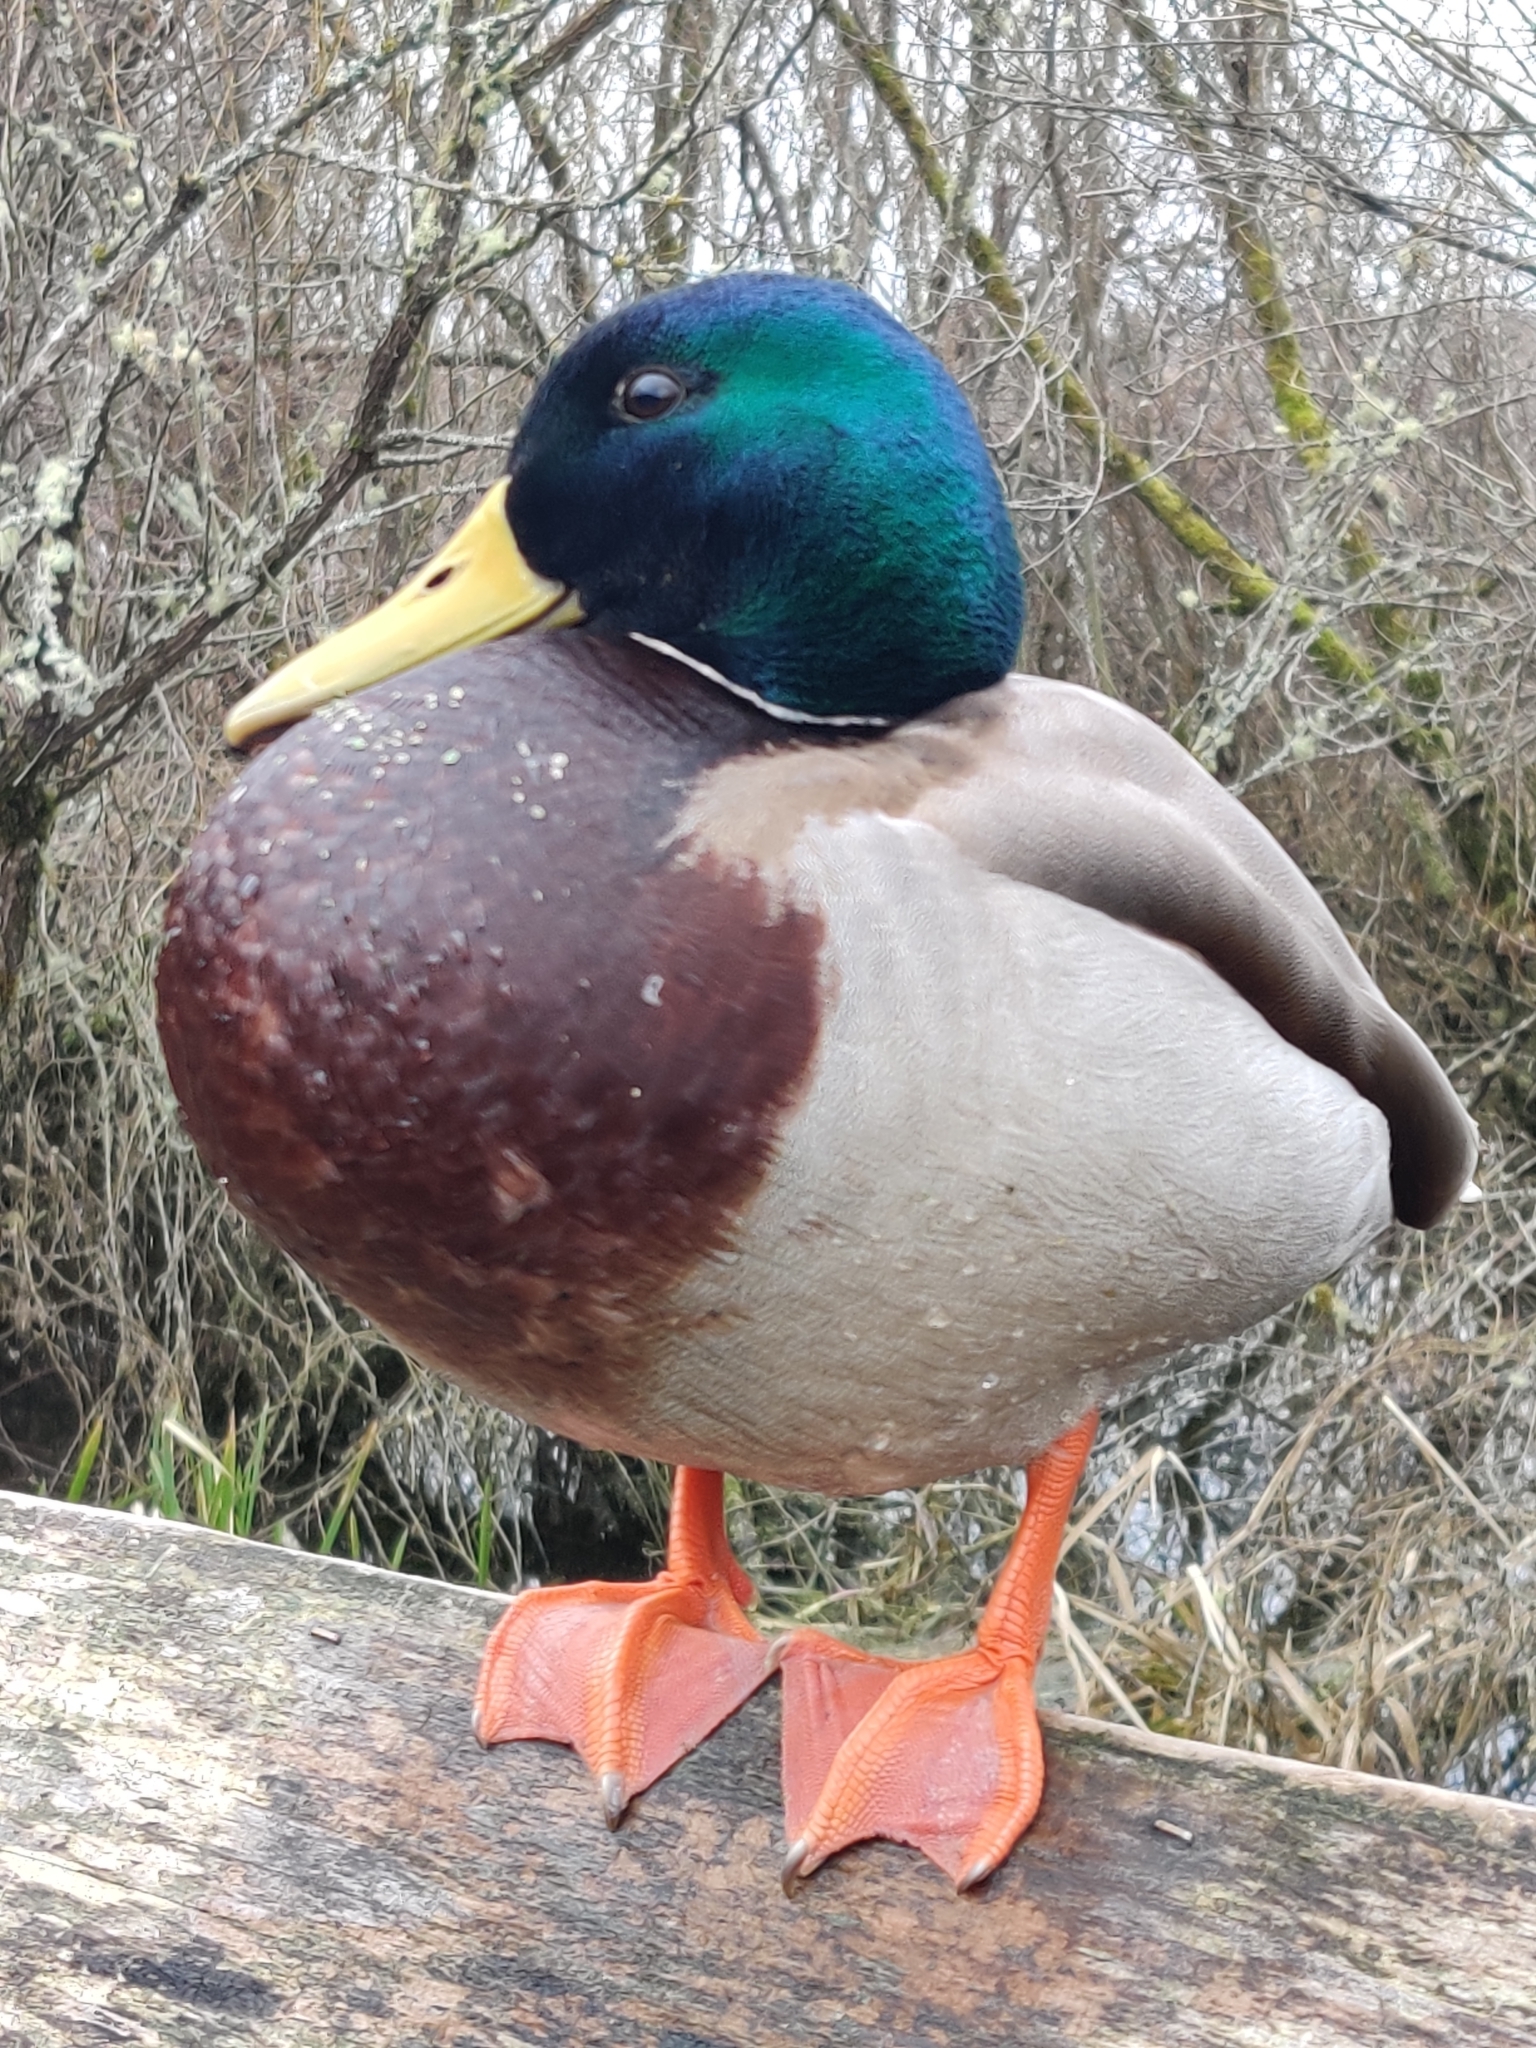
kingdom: Animalia
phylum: Chordata
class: Aves
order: Anseriformes
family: Anatidae
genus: Anas
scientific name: Anas platyrhynchos
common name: Mallard
